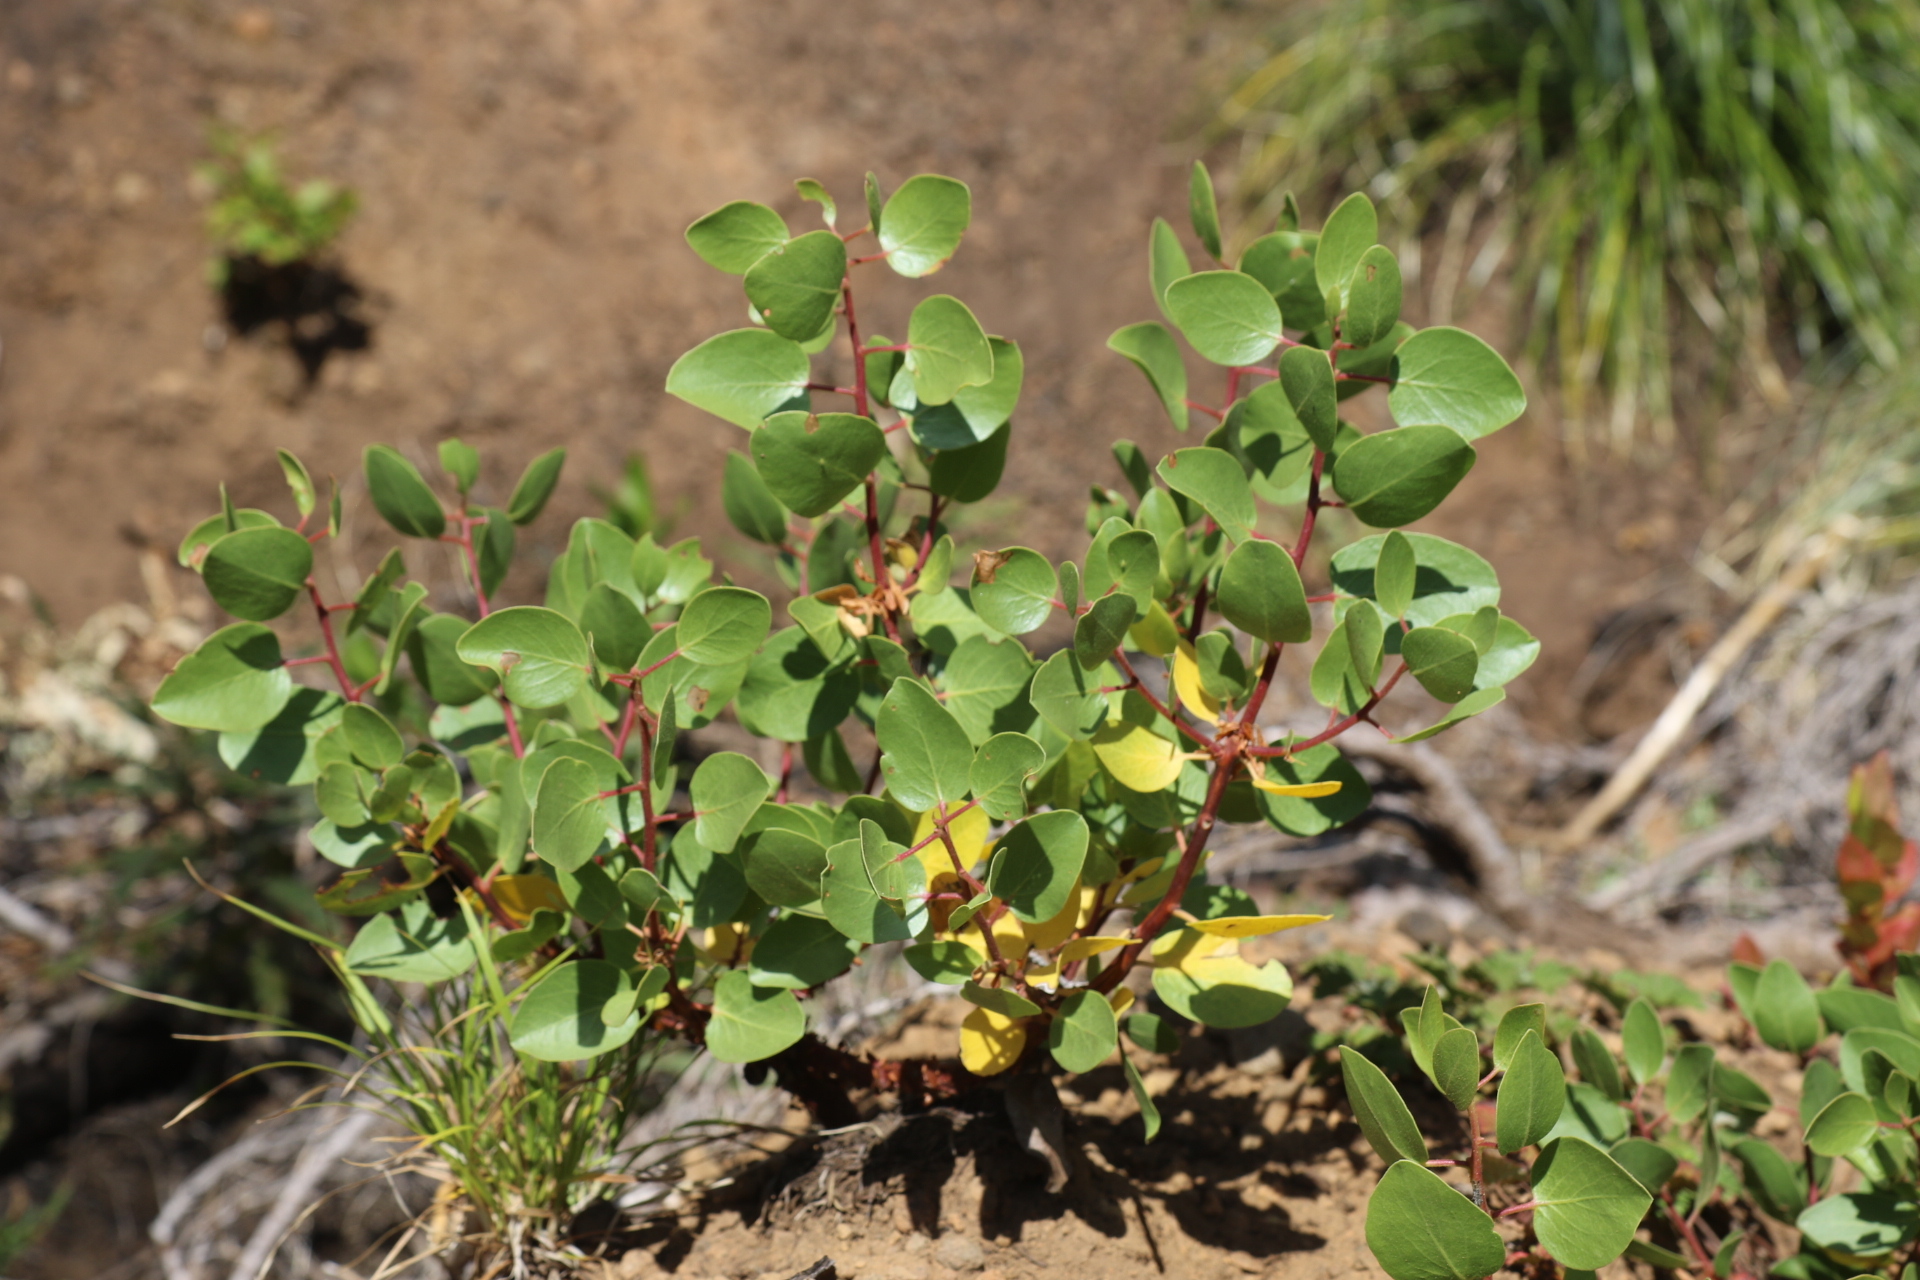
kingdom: Plantae
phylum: Tracheophyta
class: Magnoliopsida
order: Ericales
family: Ericaceae
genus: Arctostaphylos
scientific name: Arctostaphylos patula
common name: Green-leaf manzanita
